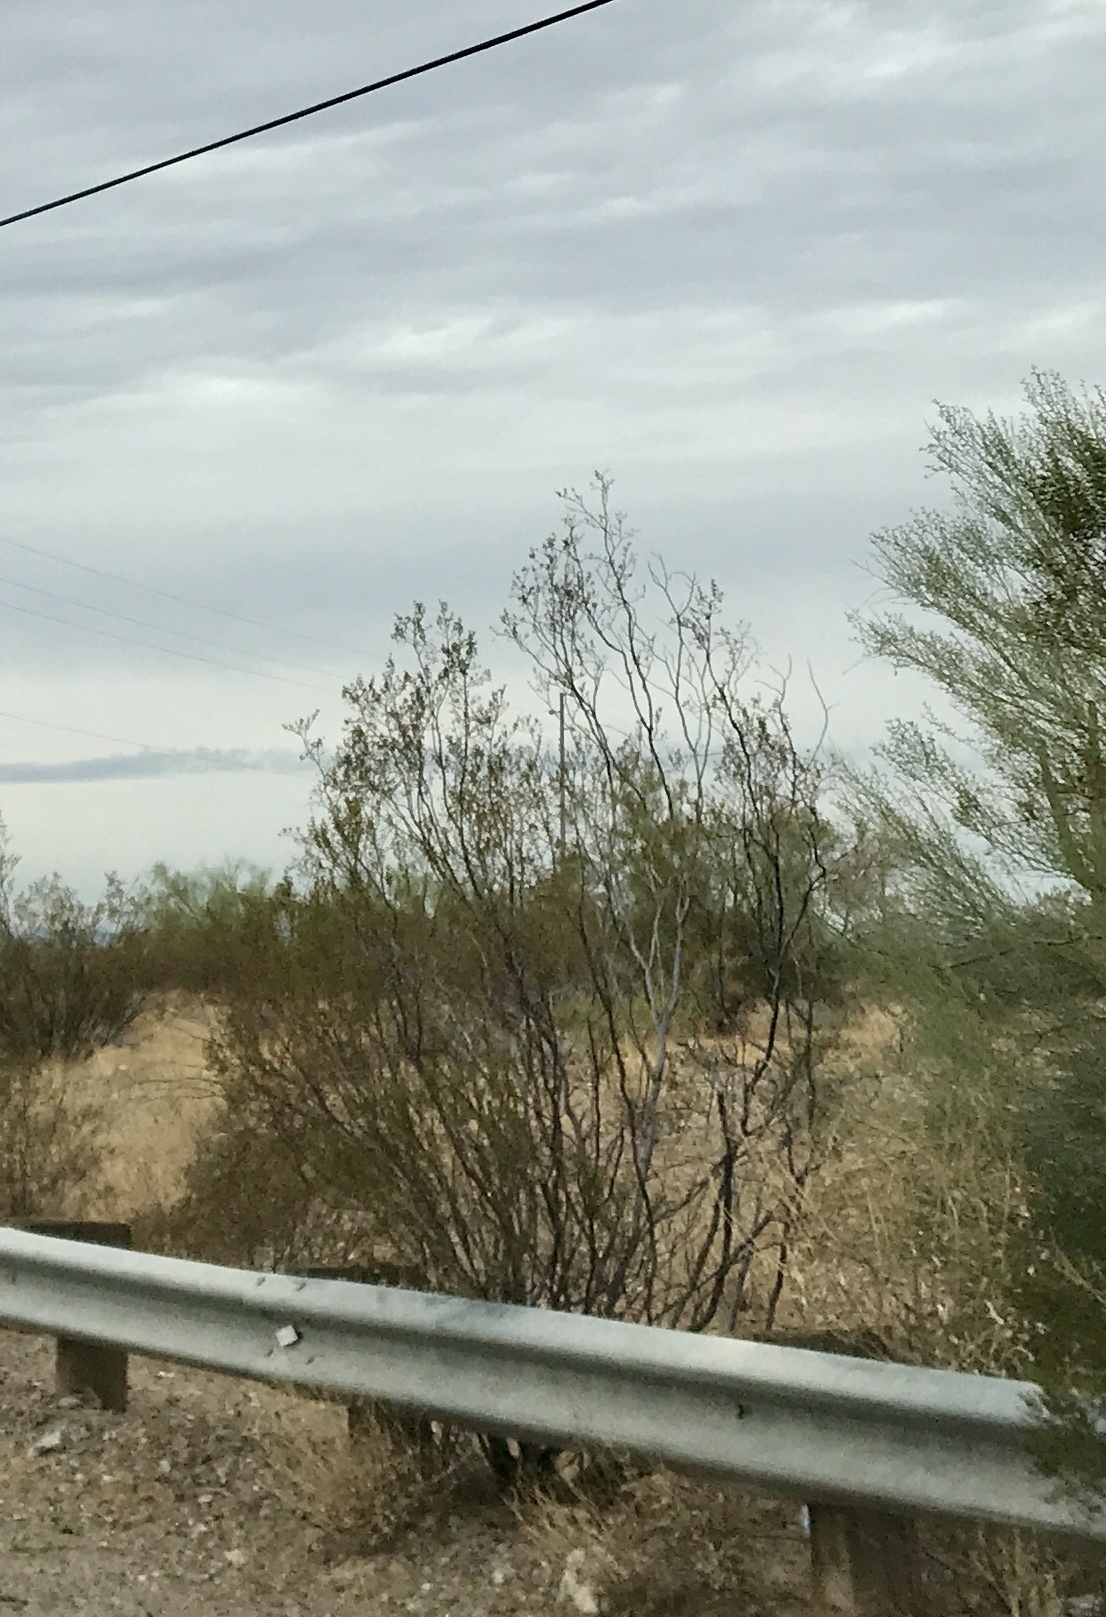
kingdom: Plantae
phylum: Tracheophyta
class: Magnoliopsida
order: Zygophyllales
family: Zygophyllaceae
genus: Larrea
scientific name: Larrea tridentata
